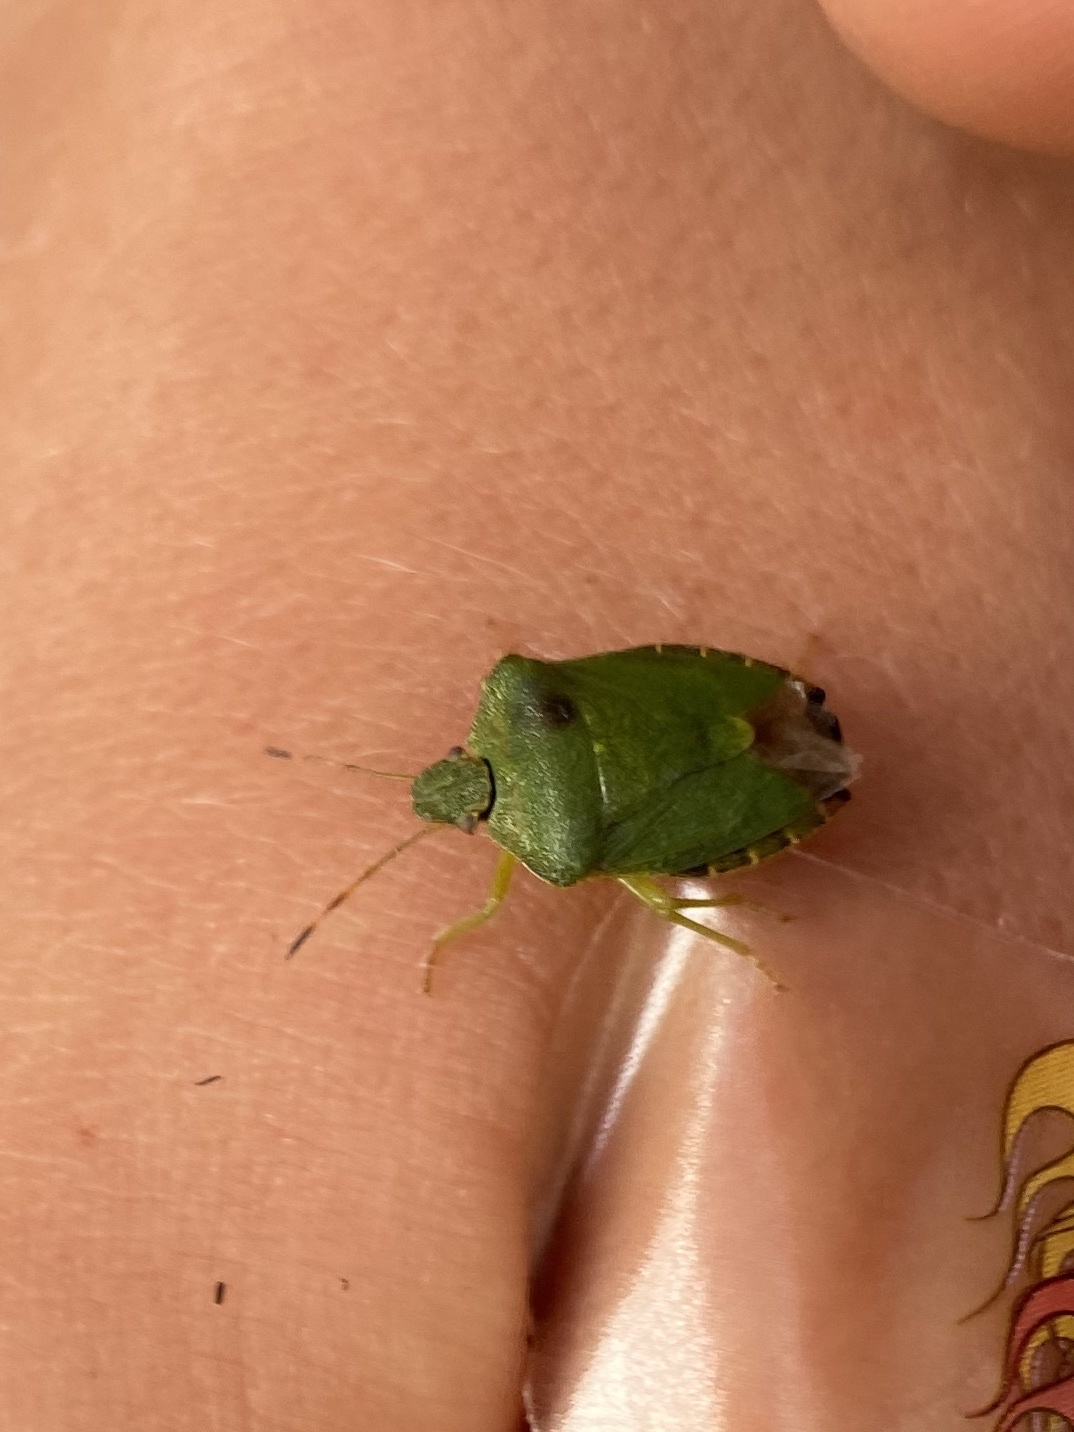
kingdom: Animalia
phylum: Arthropoda
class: Insecta
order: Hemiptera
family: Pentatomidae
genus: Palomena
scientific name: Palomena prasina
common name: Green shieldbug
